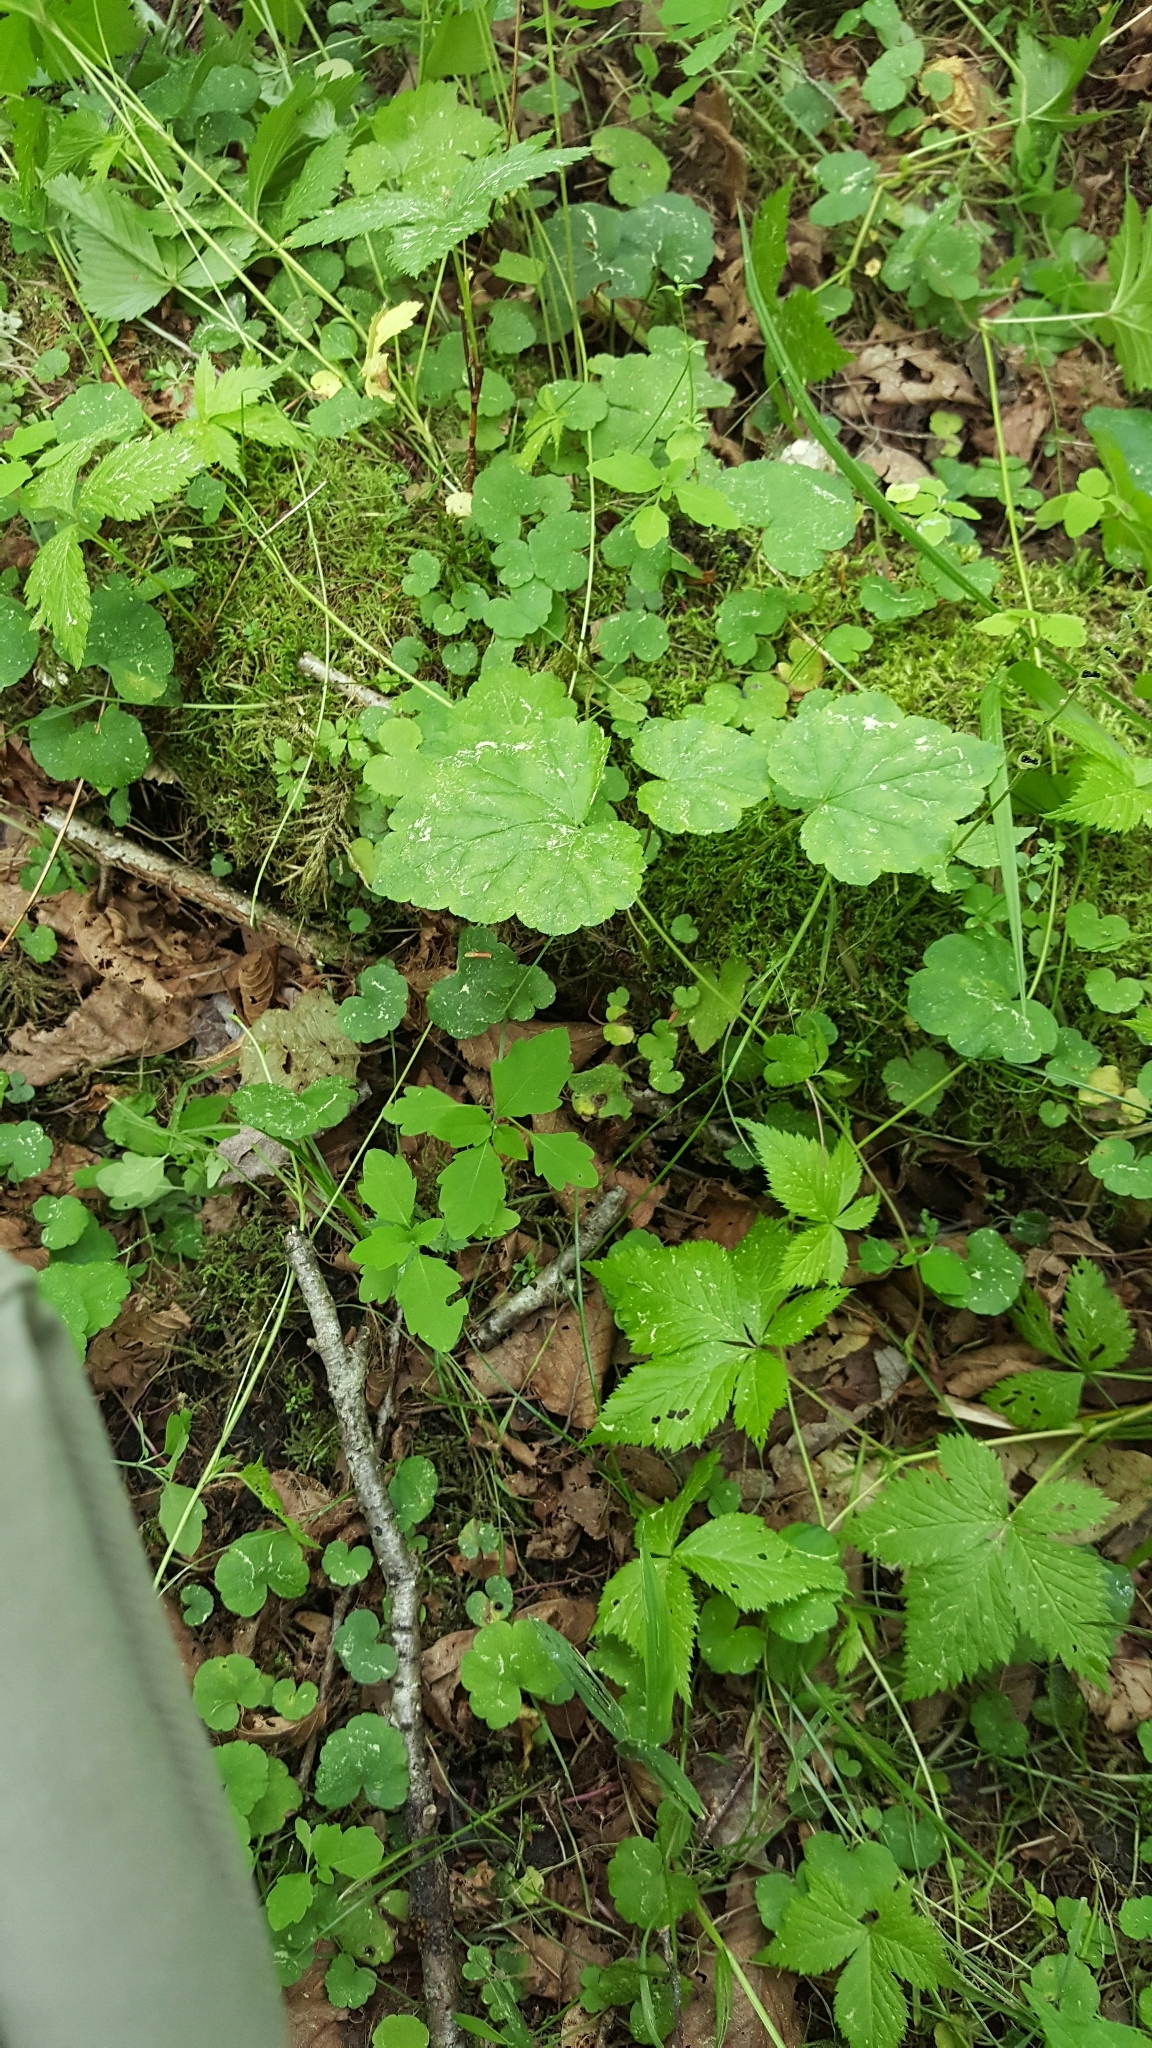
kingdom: Plantae
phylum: Tracheophyta
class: Magnoliopsida
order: Saxifragales
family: Saxifragaceae
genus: Tiarella
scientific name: Tiarella stolonifera
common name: Stoloniferous foamflower
